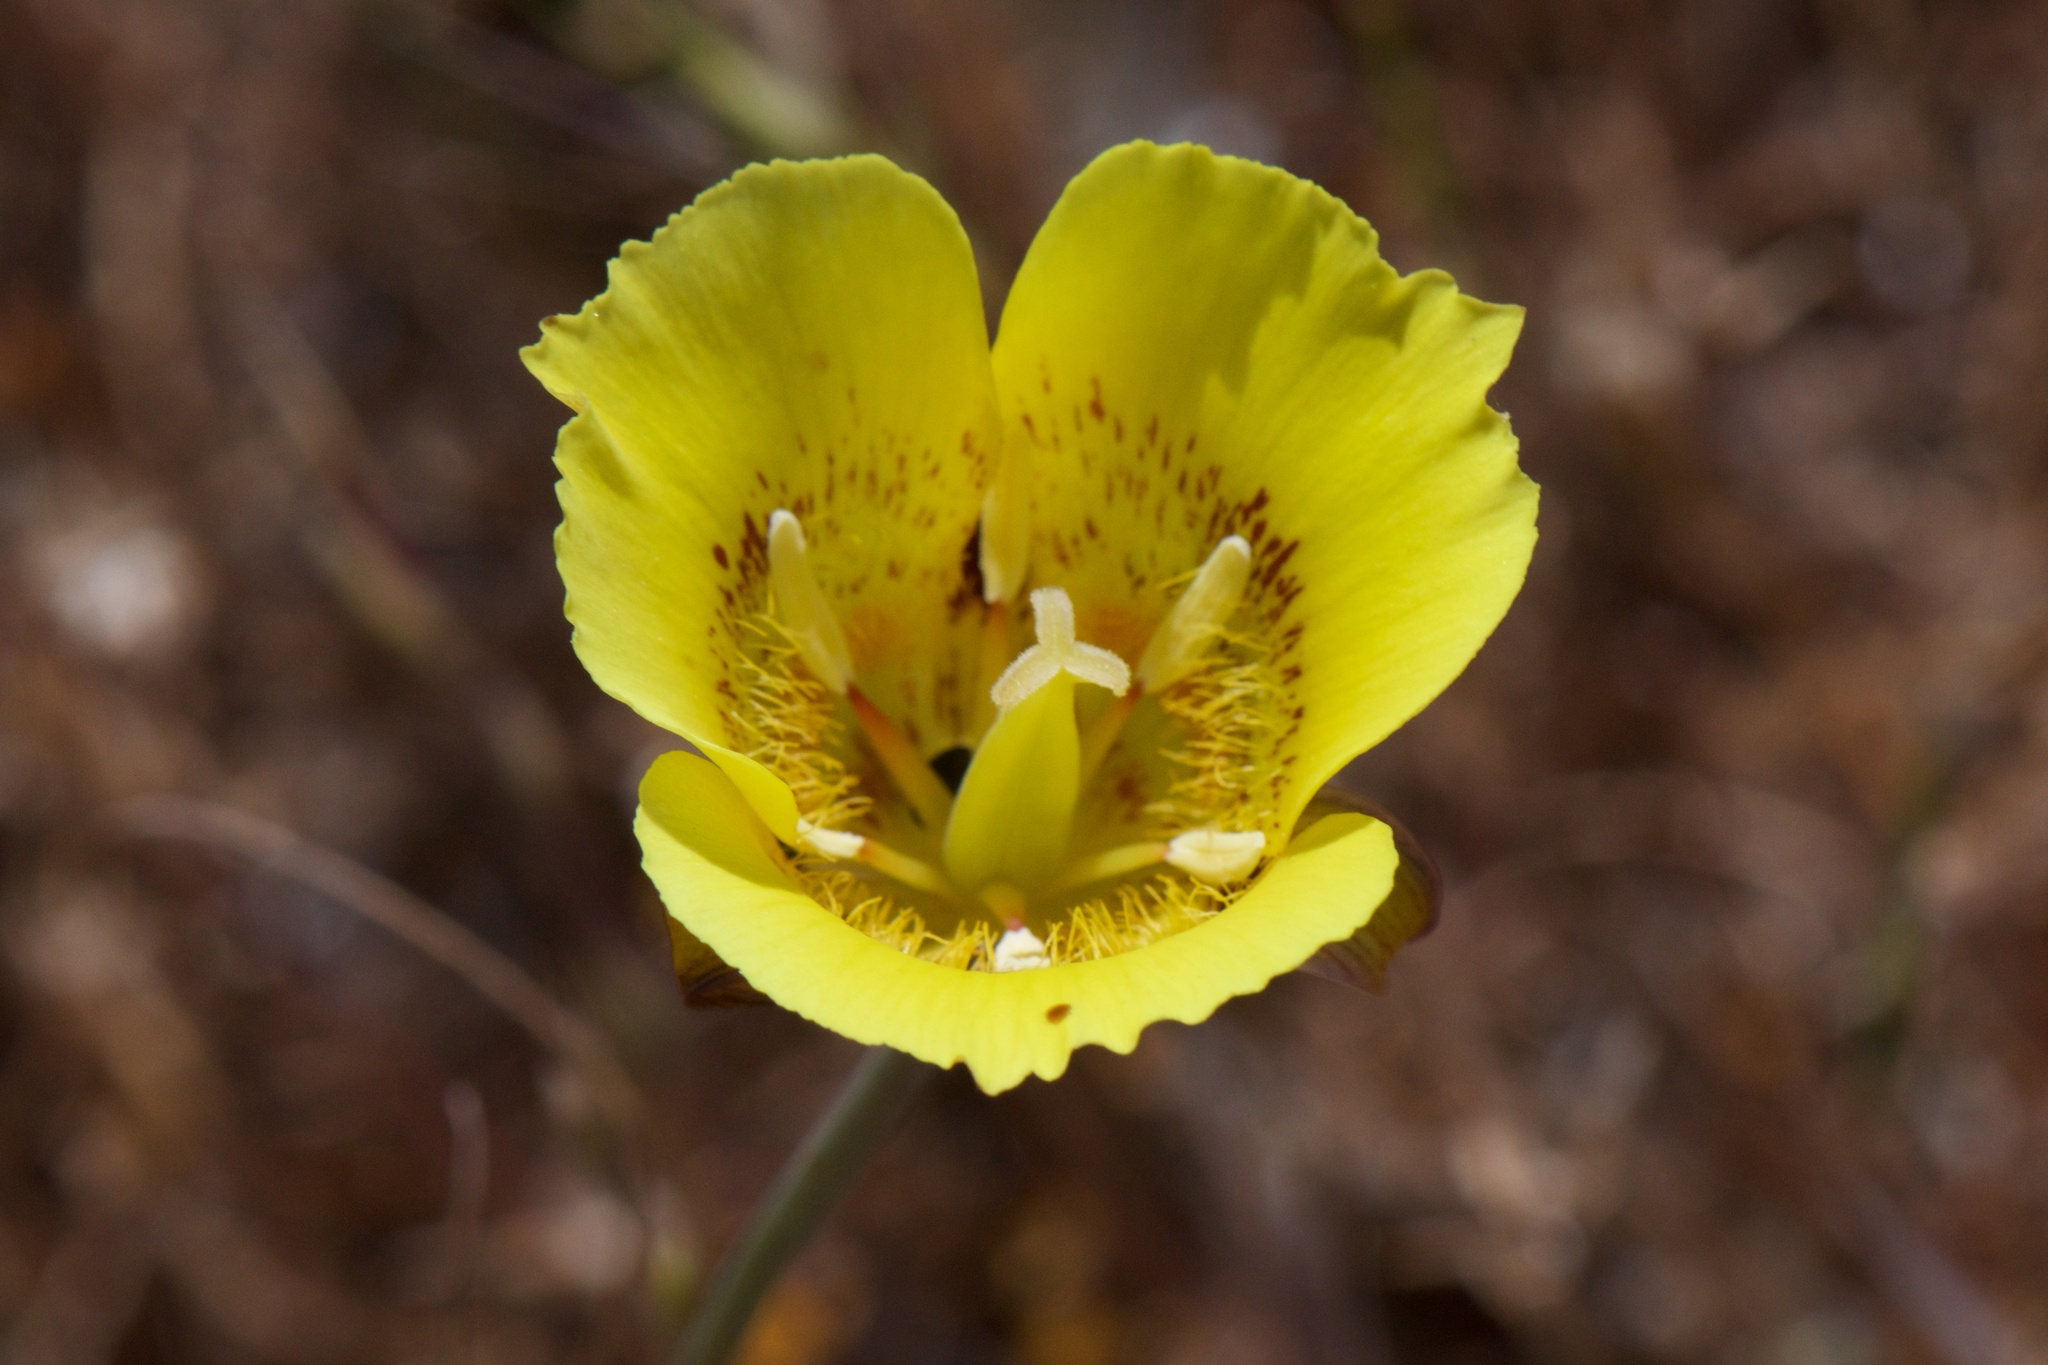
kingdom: Plantae
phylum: Tracheophyta
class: Liliopsida
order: Liliales
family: Liliaceae
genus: Calochortus
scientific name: Calochortus luteus
